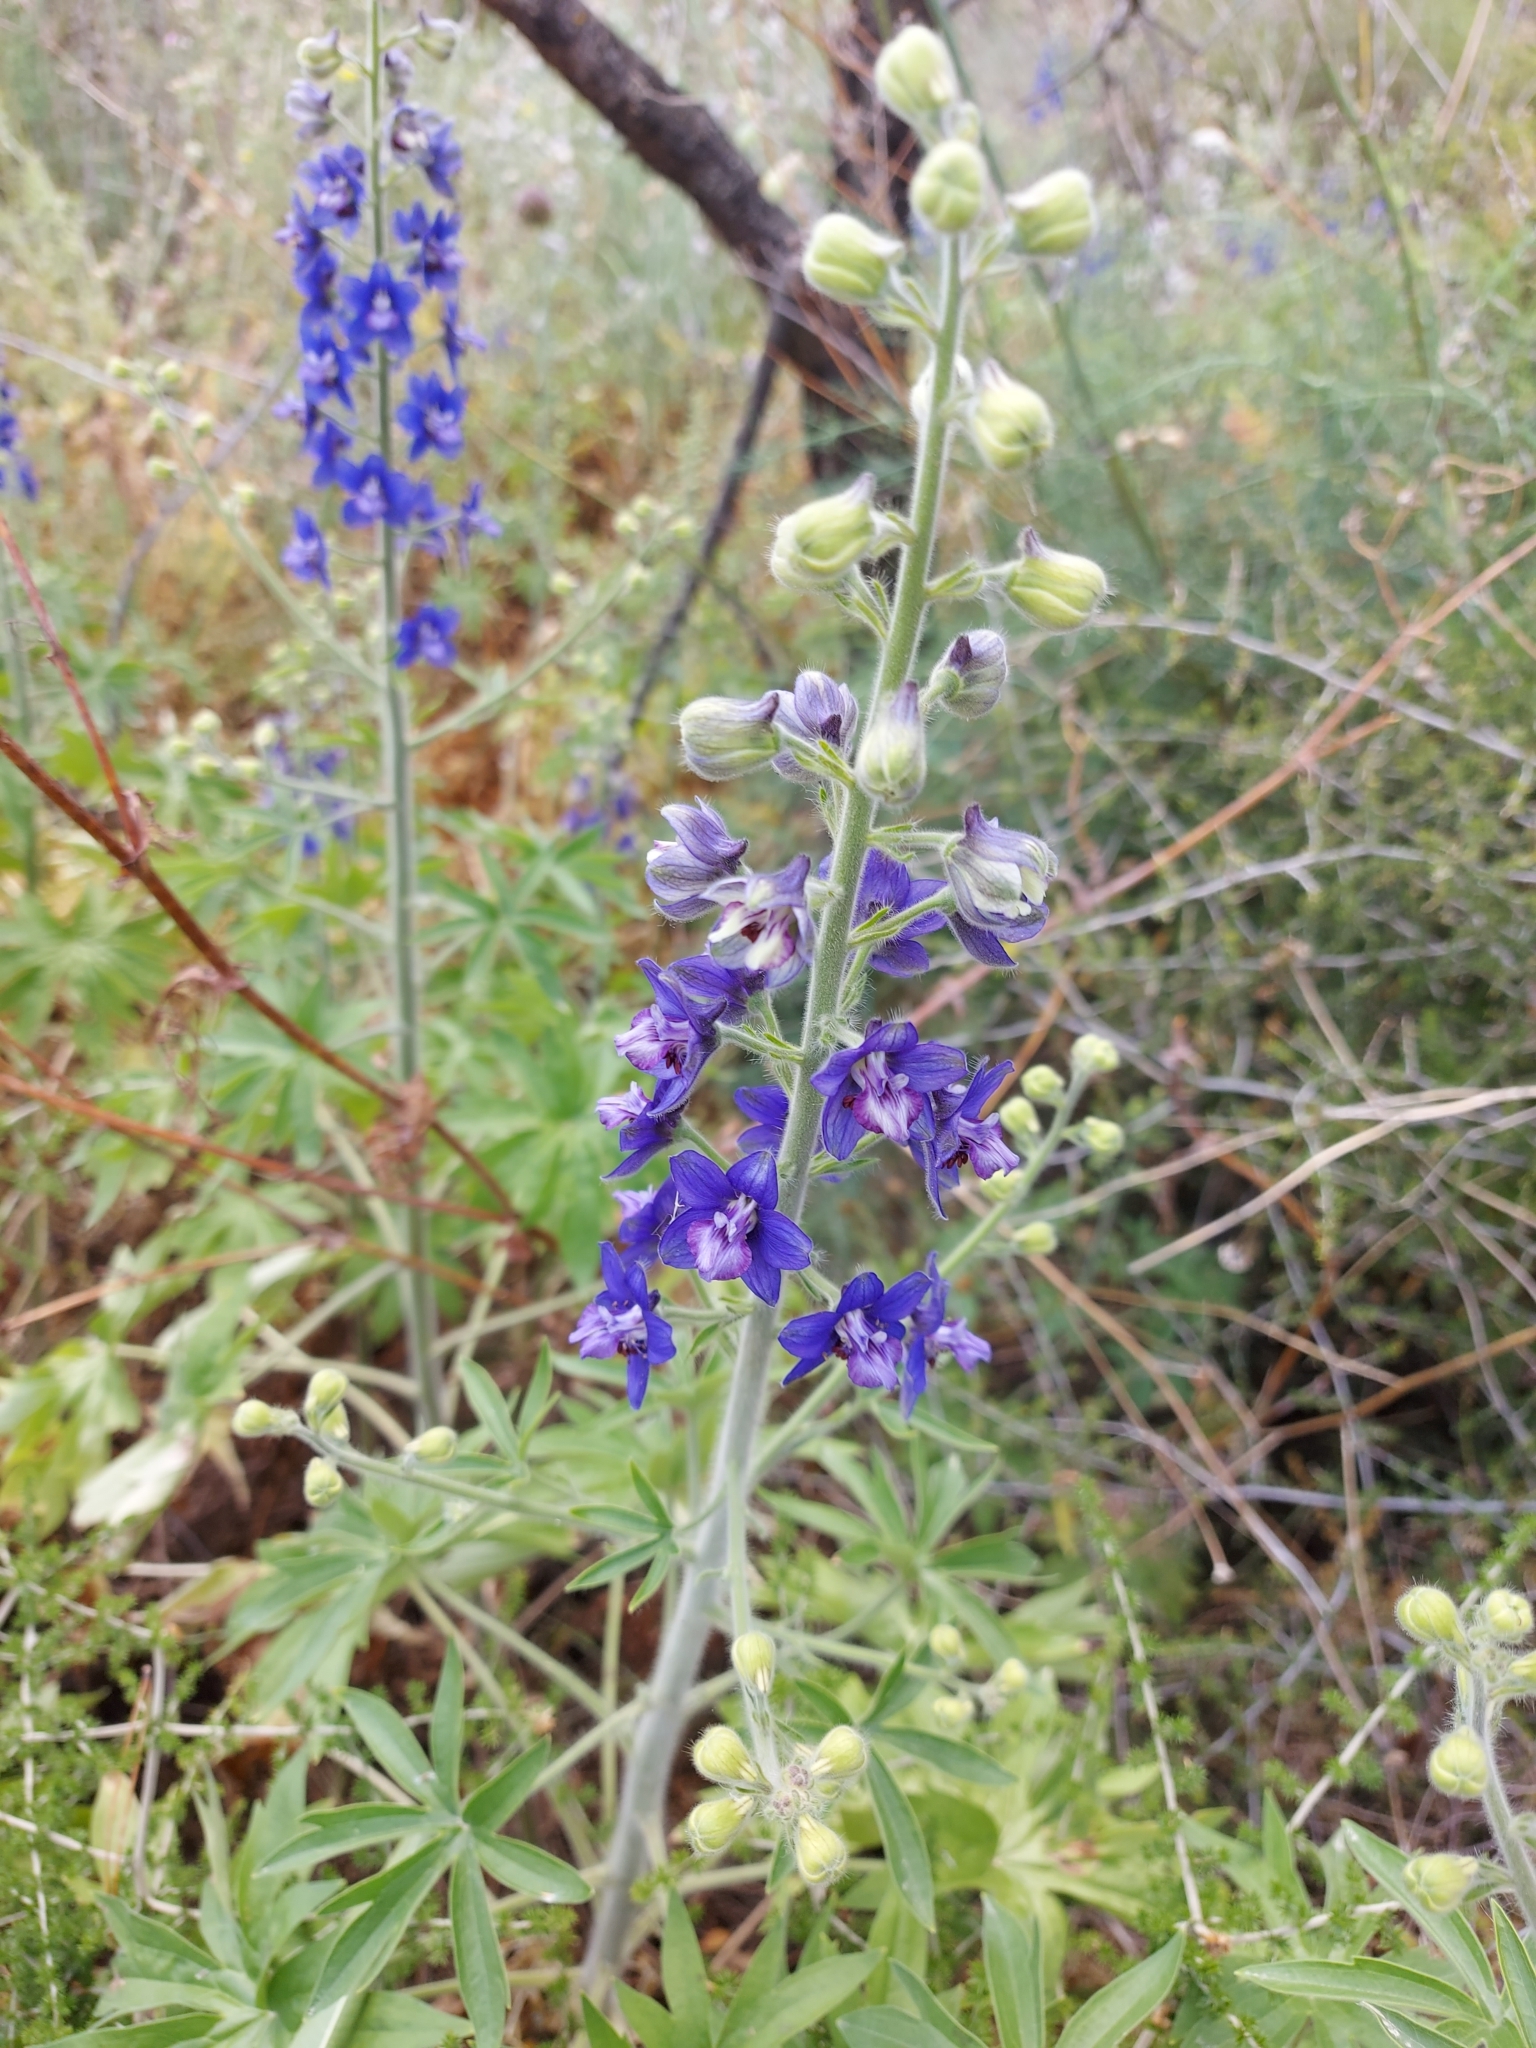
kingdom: Plantae
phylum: Tracheophyta
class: Magnoliopsida
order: Ranunculales
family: Ranunculaceae
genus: Staphisagria
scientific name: Staphisagria macrosperma
